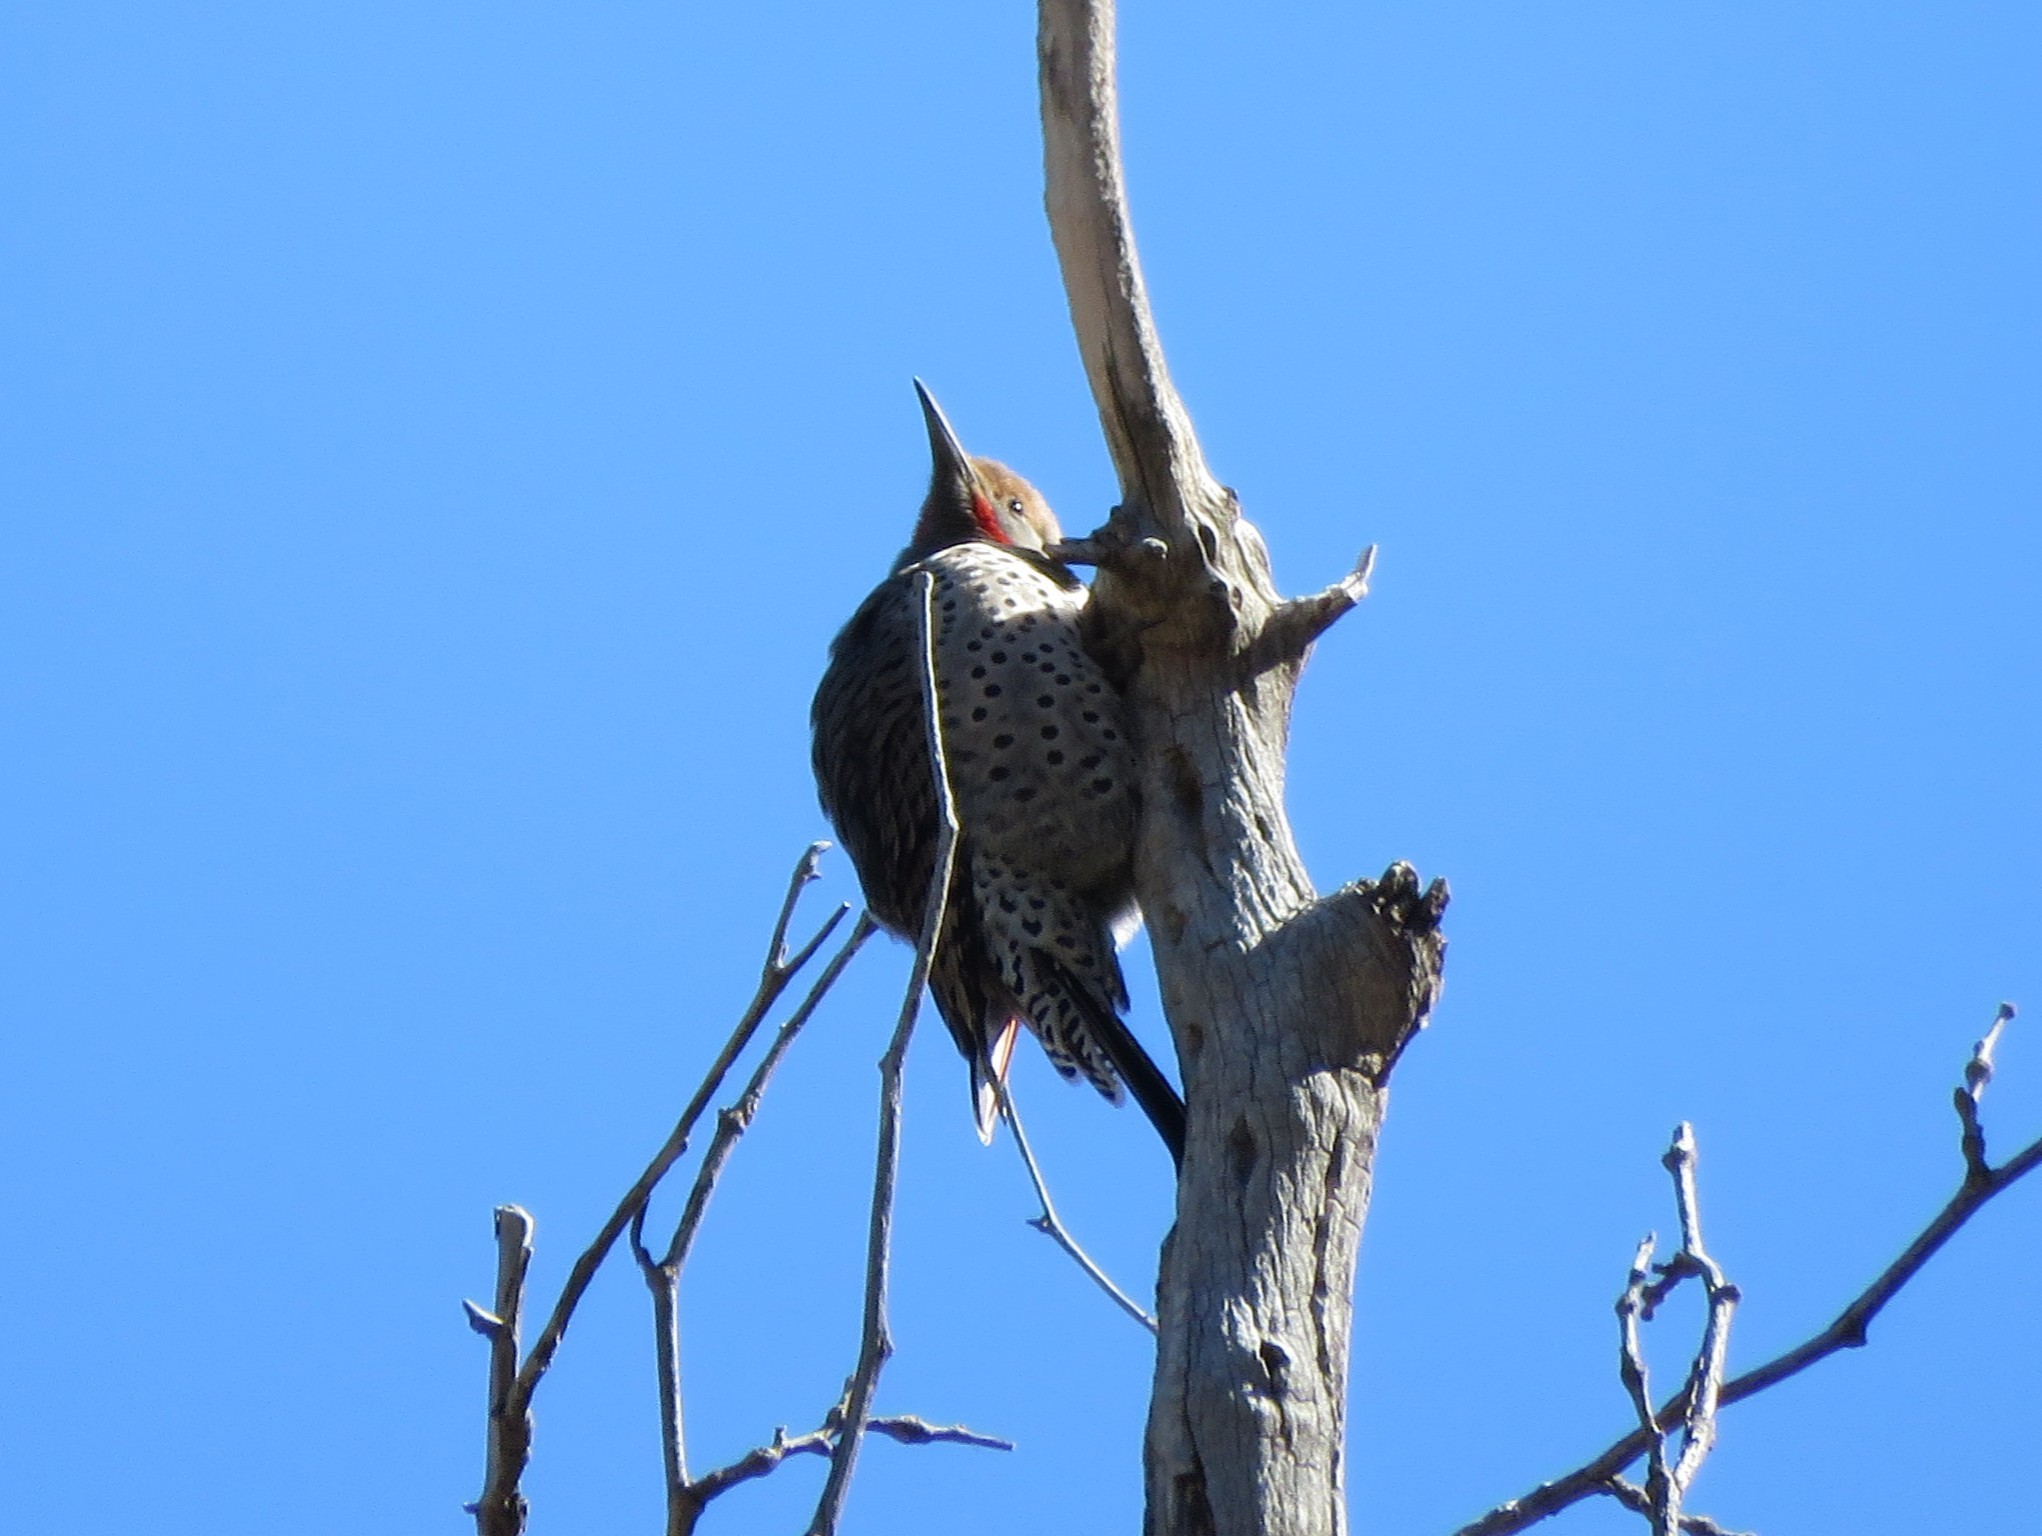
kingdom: Animalia
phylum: Chordata
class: Aves
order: Piciformes
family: Picidae
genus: Colaptes
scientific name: Colaptes auratus
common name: Northern flicker
